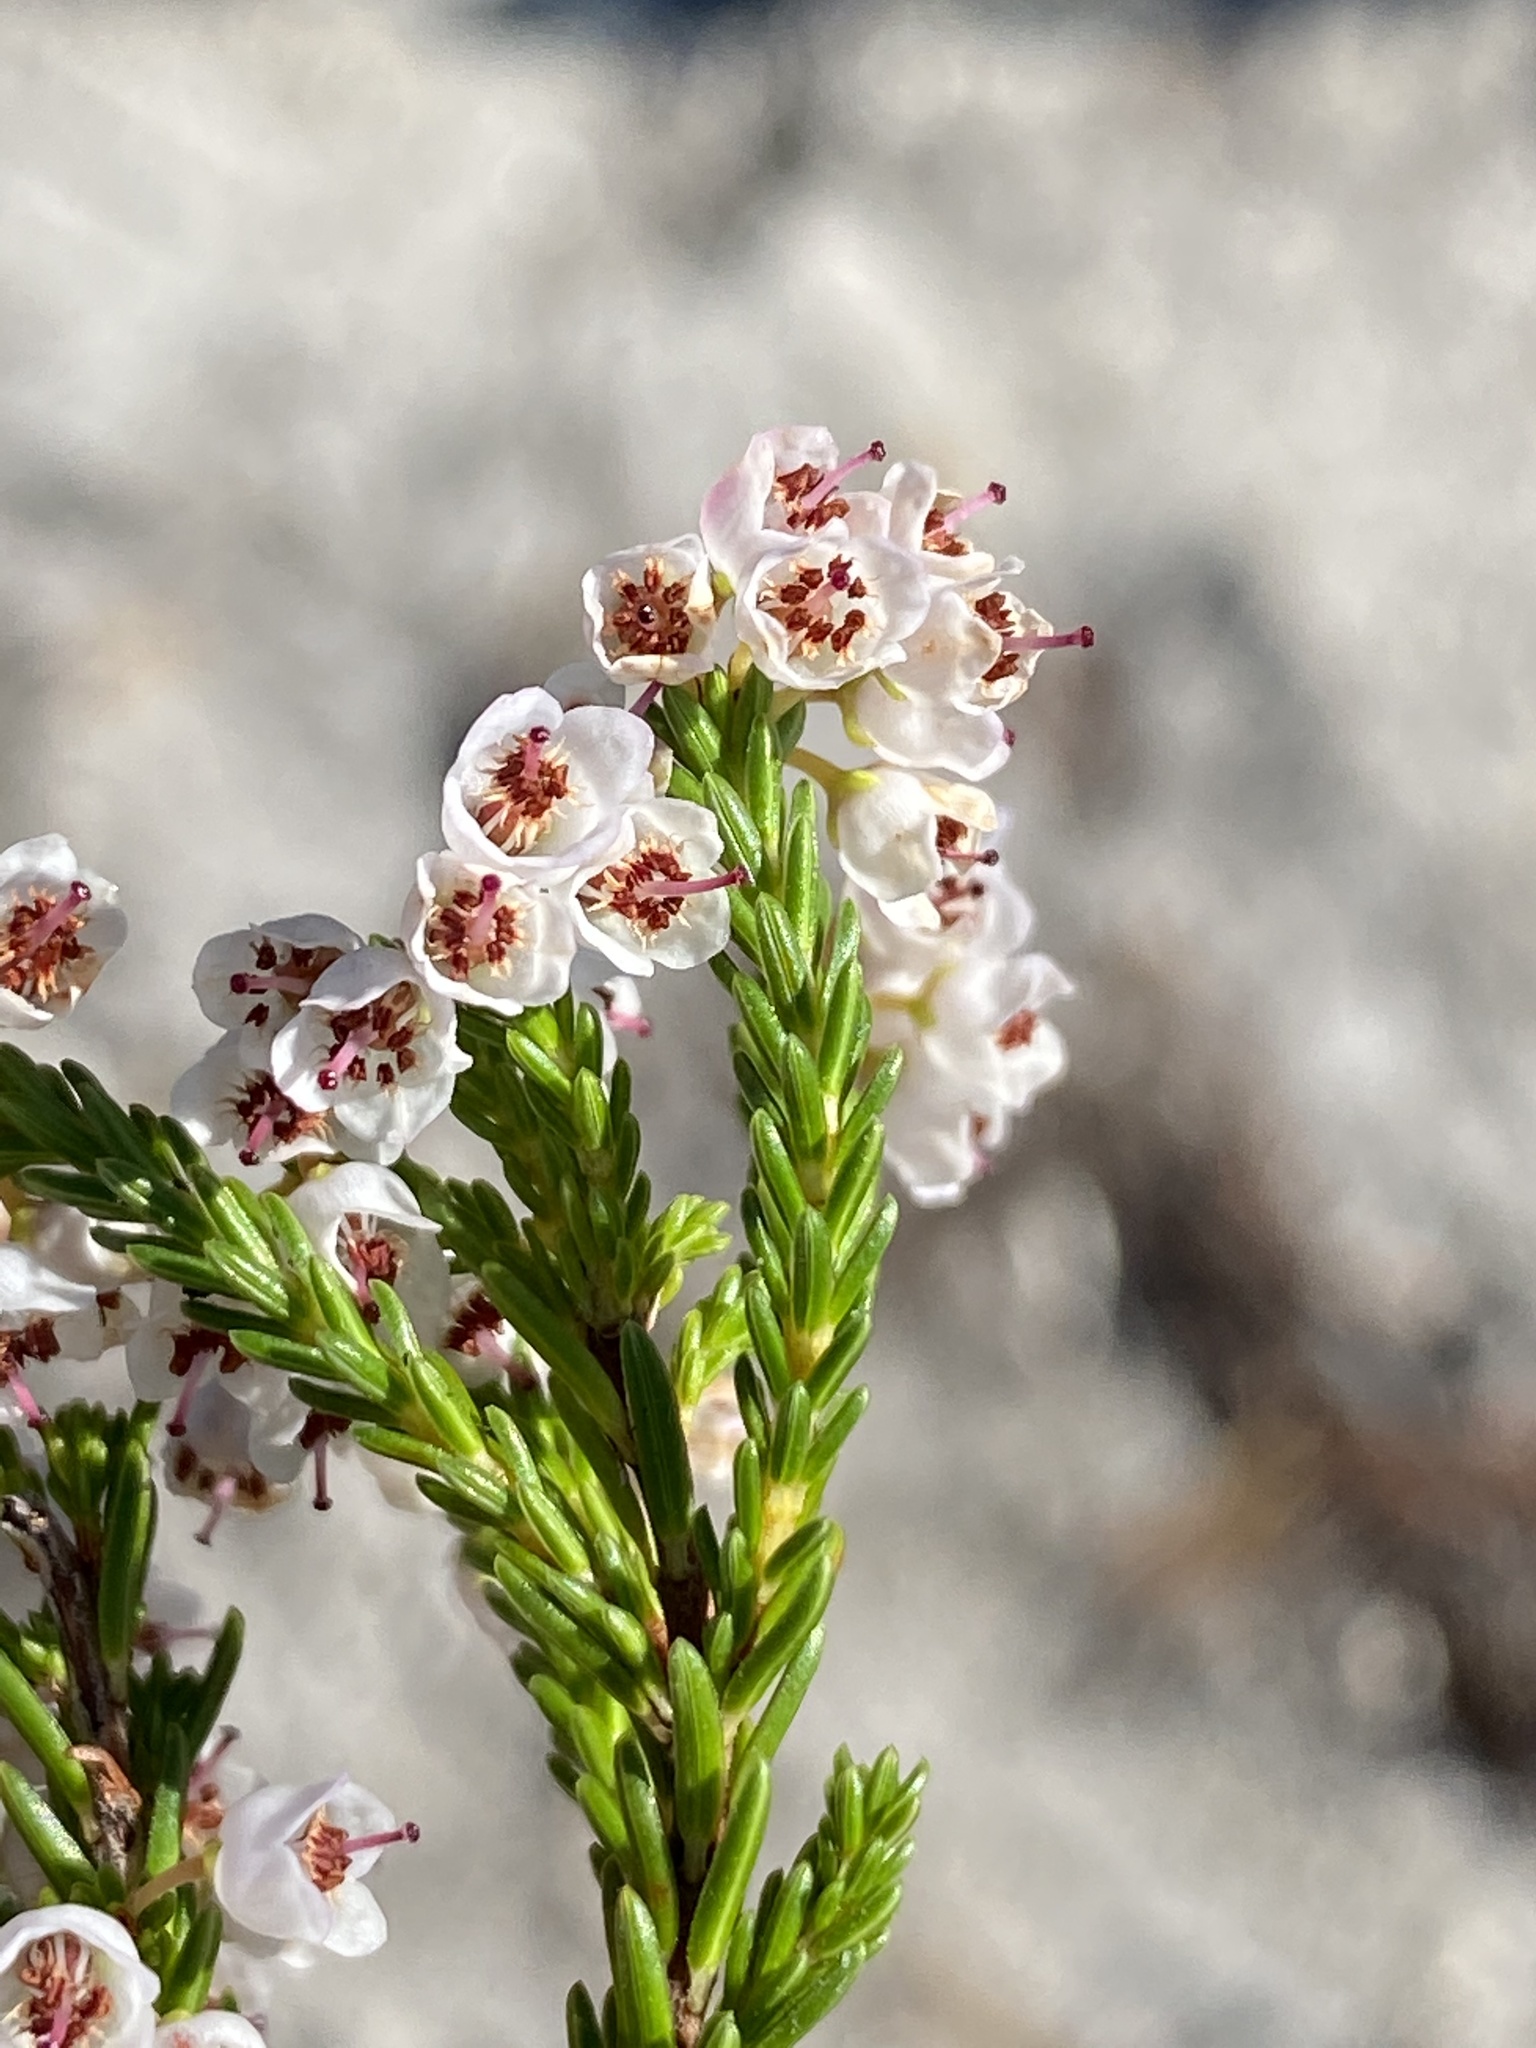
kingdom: Plantae
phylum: Tracheophyta
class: Magnoliopsida
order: Ericales
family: Ericaceae
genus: Erica
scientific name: Erica curvirostris
